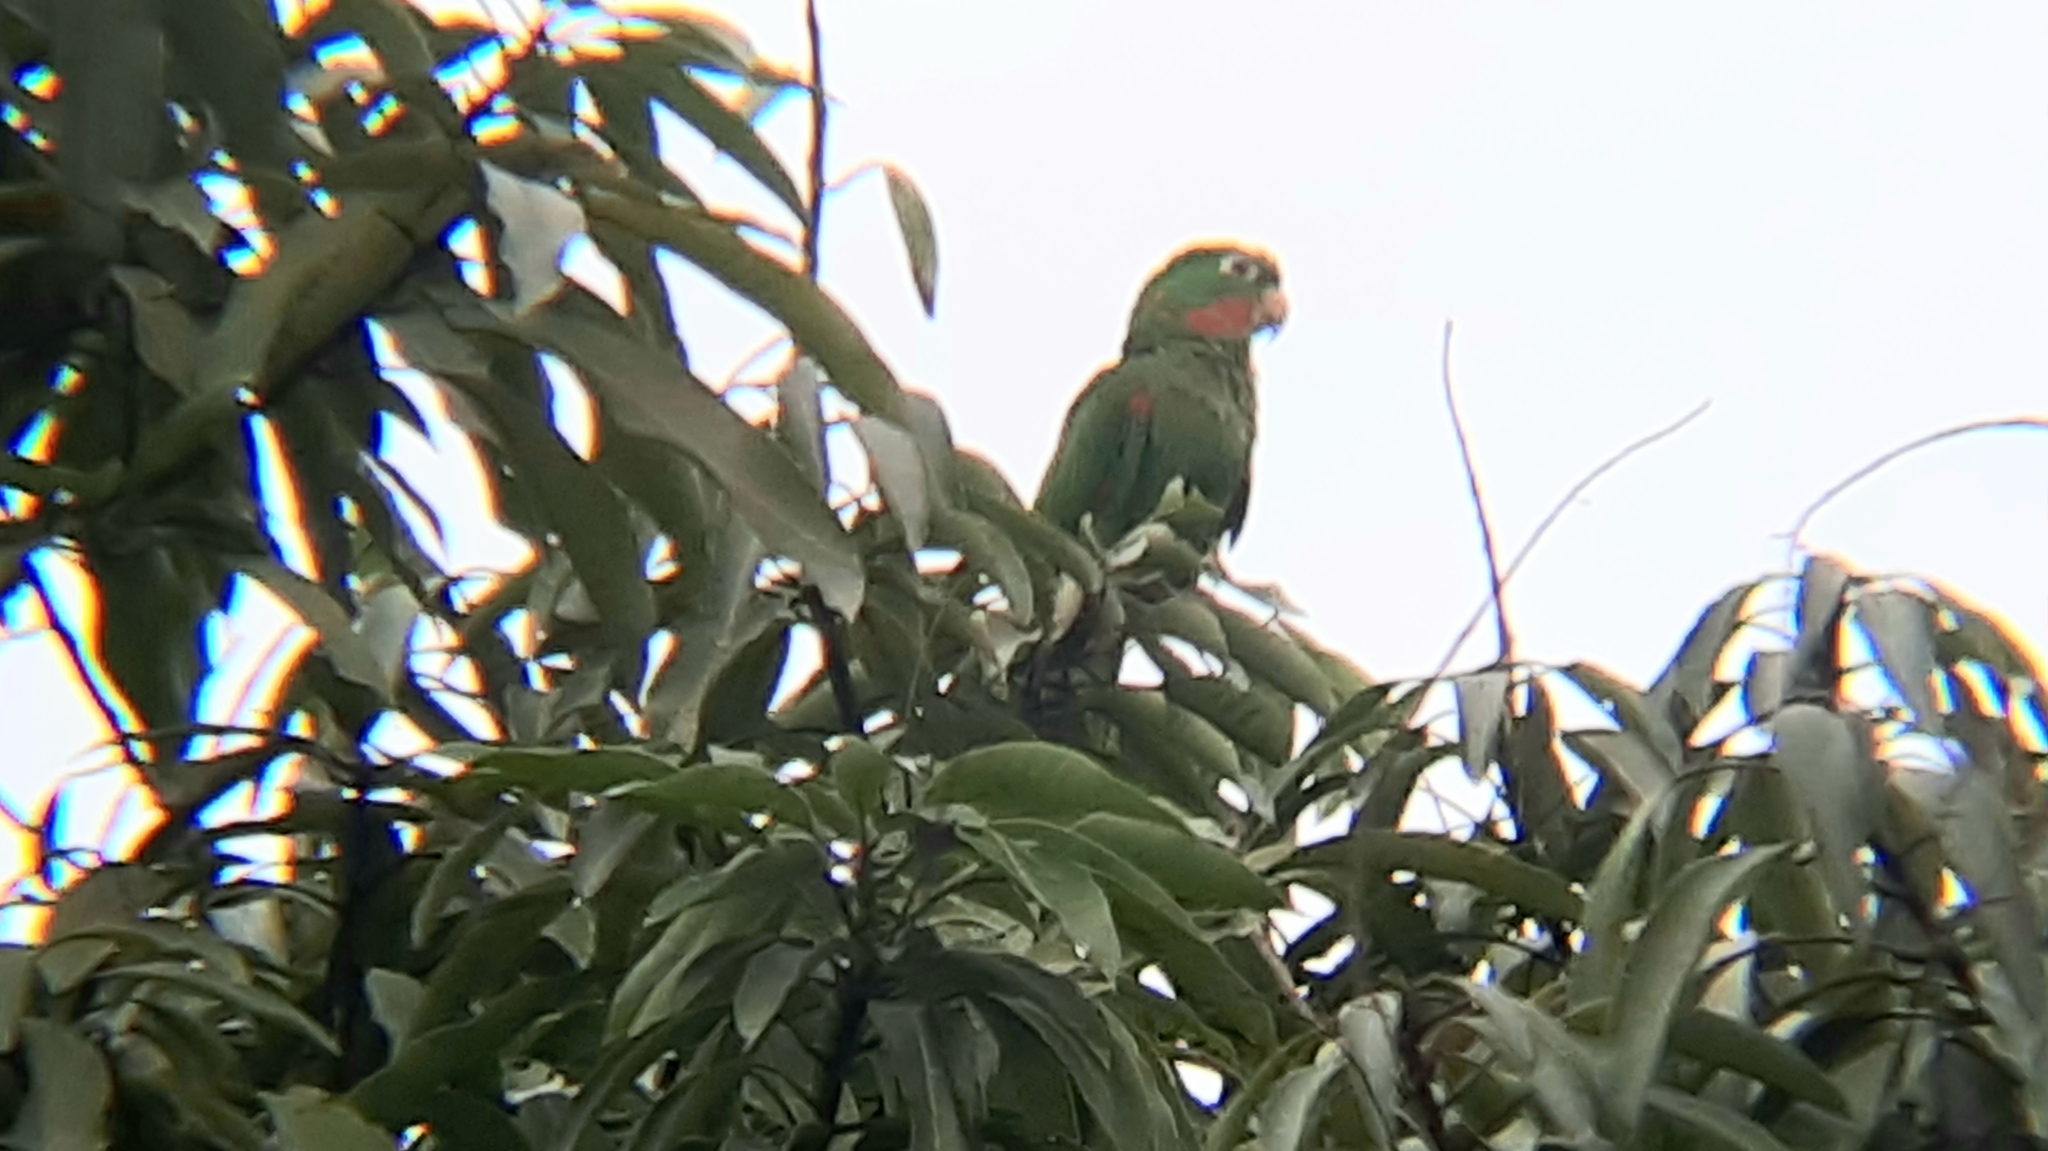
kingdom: Animalia
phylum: Chordata
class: Aves
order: Psittaciformes
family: Psittacidae
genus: Aratinga
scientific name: Aratinga leucophthalma
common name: White-eyed parakeet
